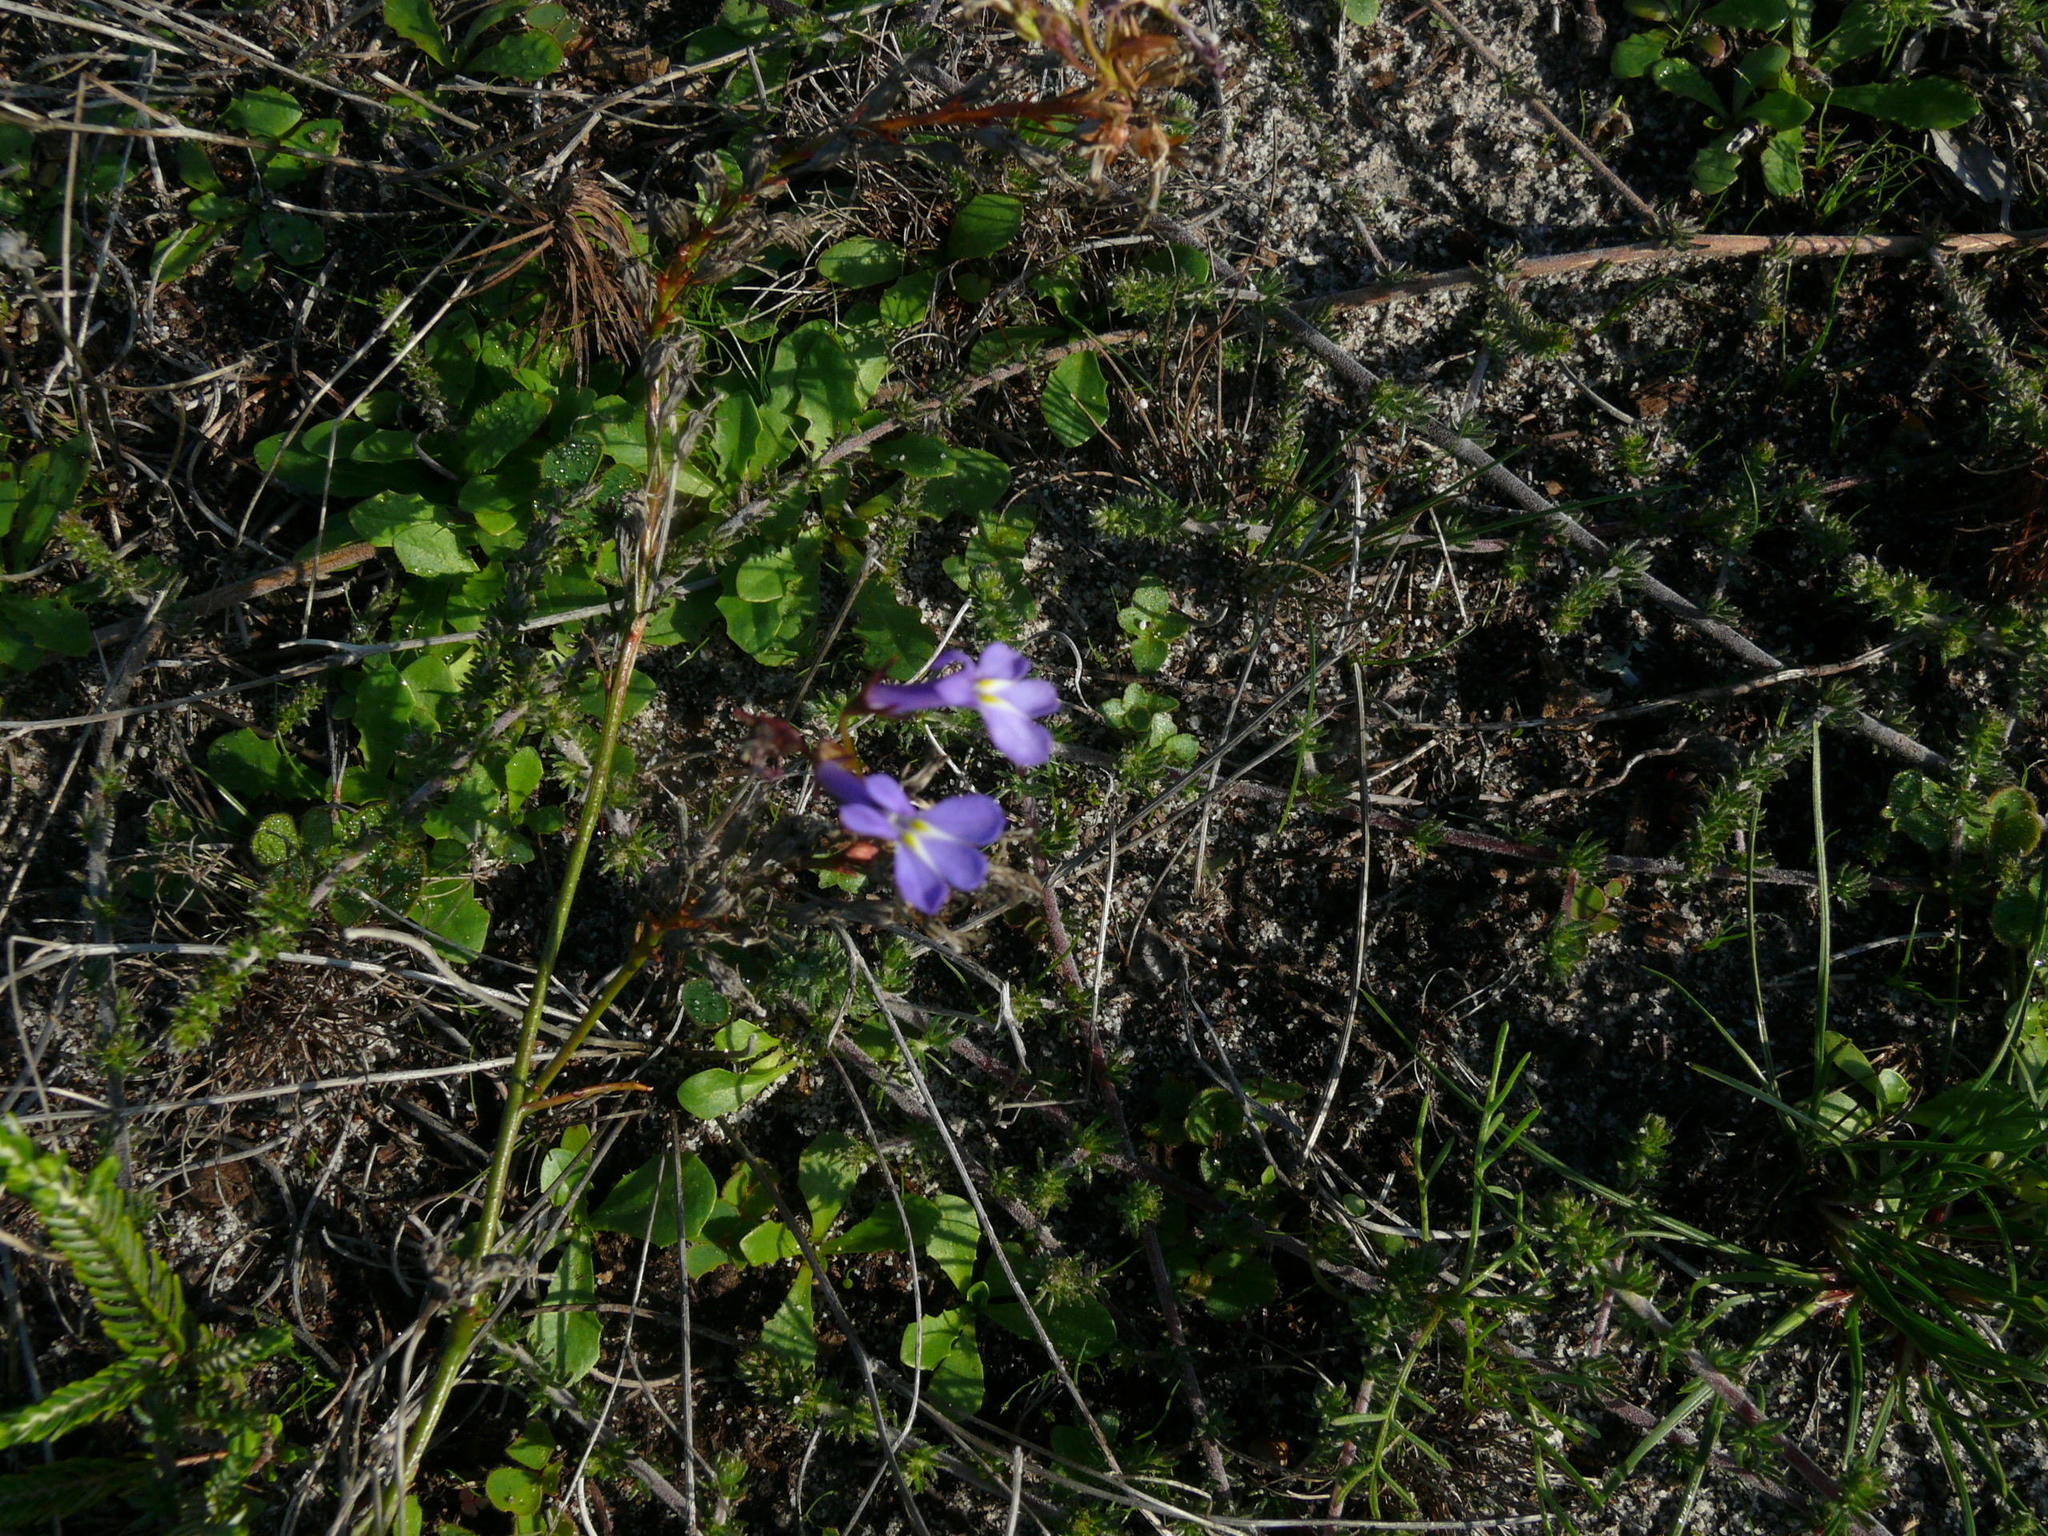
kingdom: Plantae
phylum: Tracheophyta
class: Magnoliopsida
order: Asterales
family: Campanulaceae
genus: Lobelia
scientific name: Lobelia comosa
